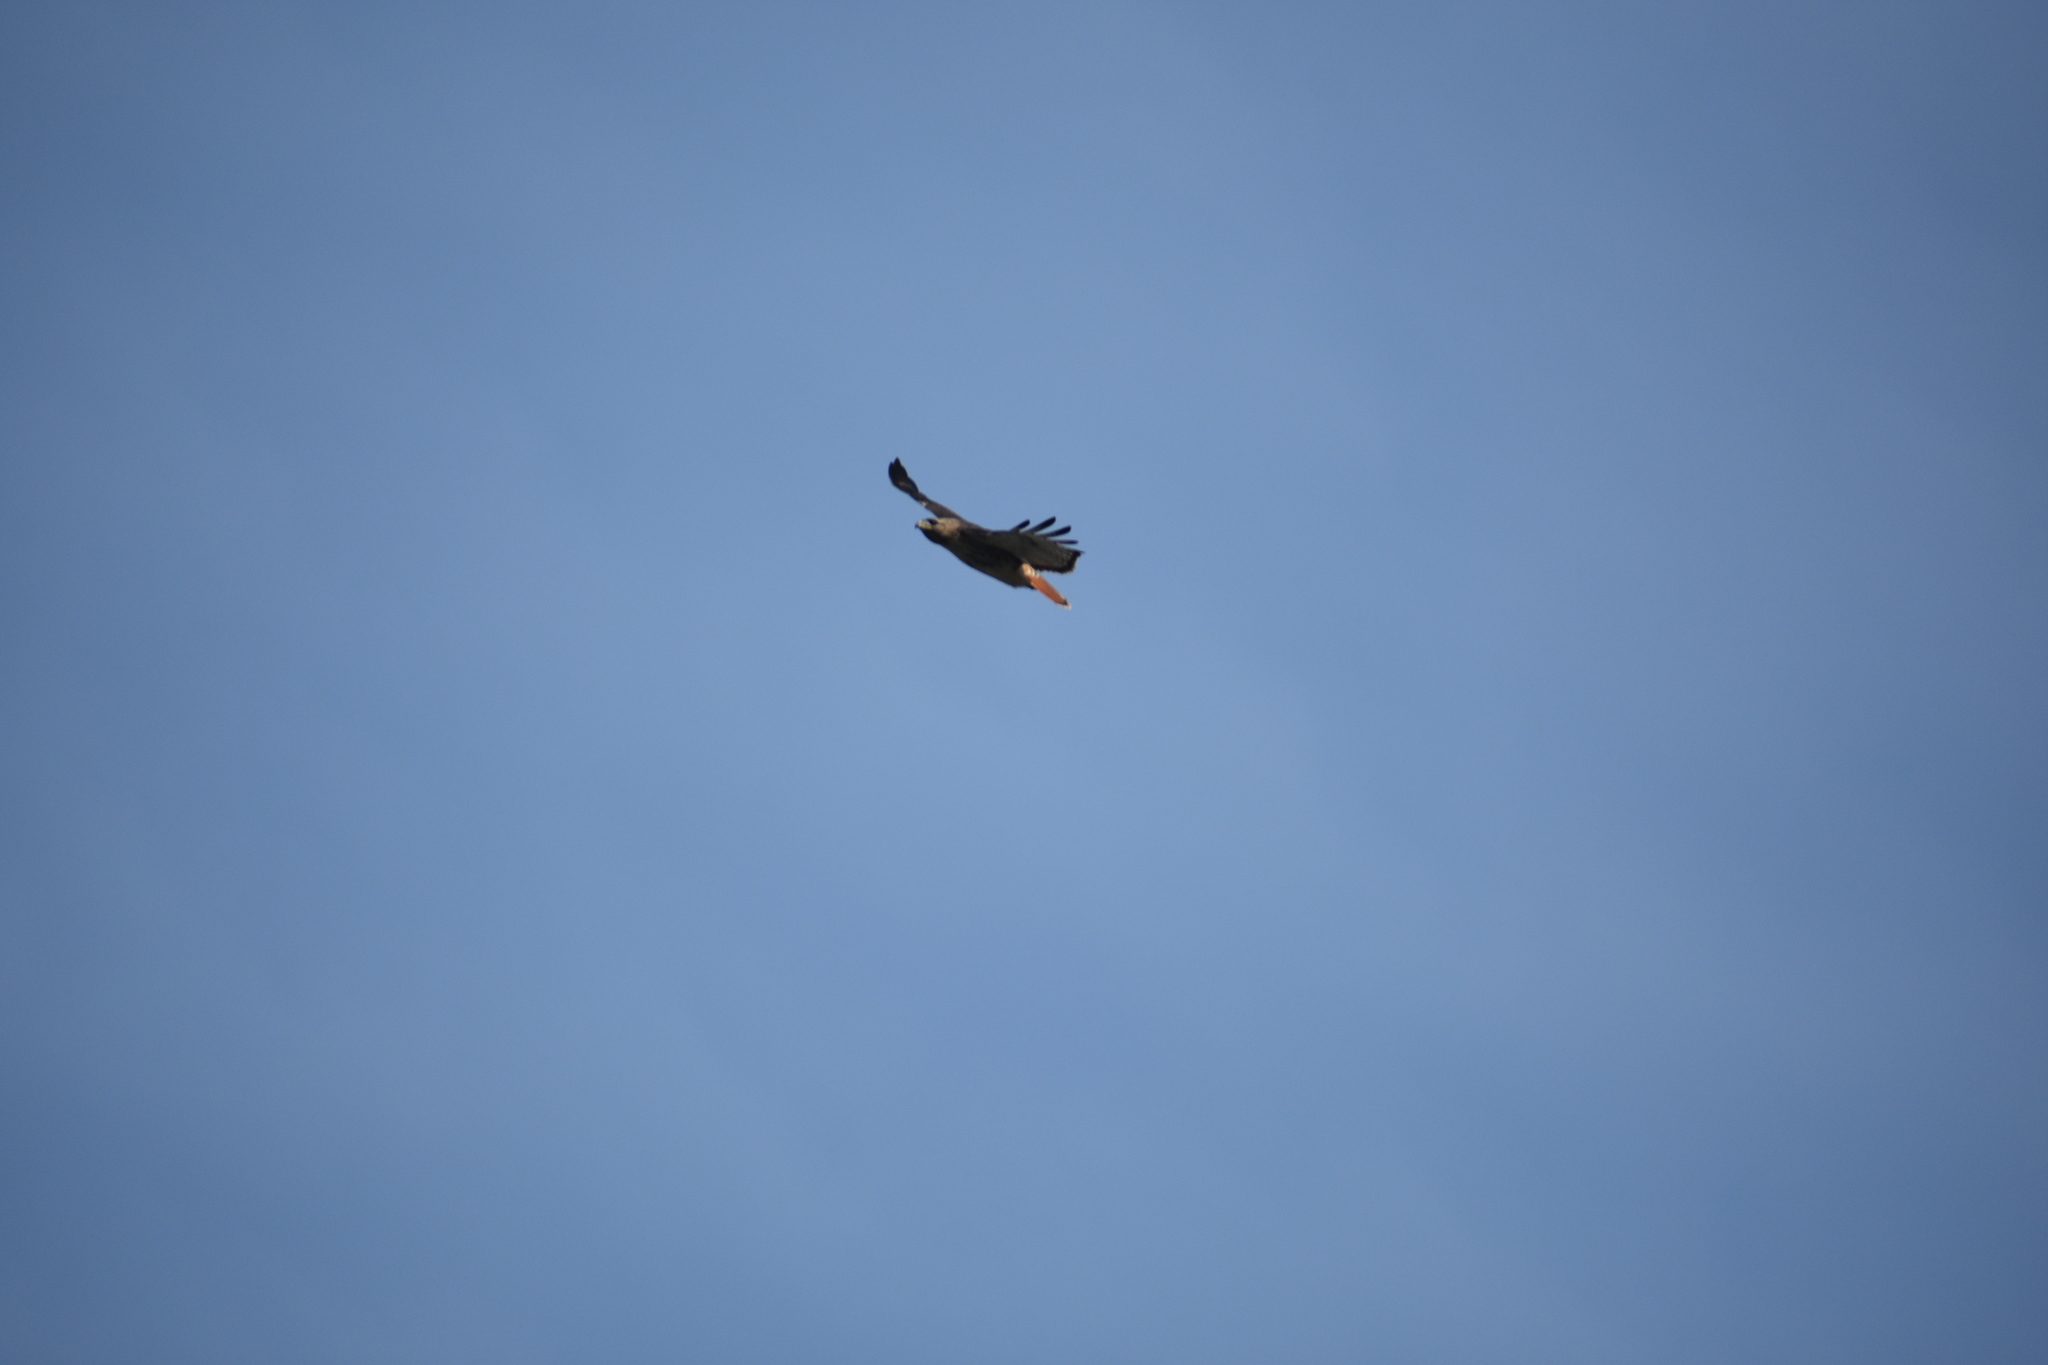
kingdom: Animalia
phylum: Chordata
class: Aves
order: Accipitriformes
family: Accipitridae
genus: Buteo
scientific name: Buteo jamaicensis
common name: Red-tailed hawk
